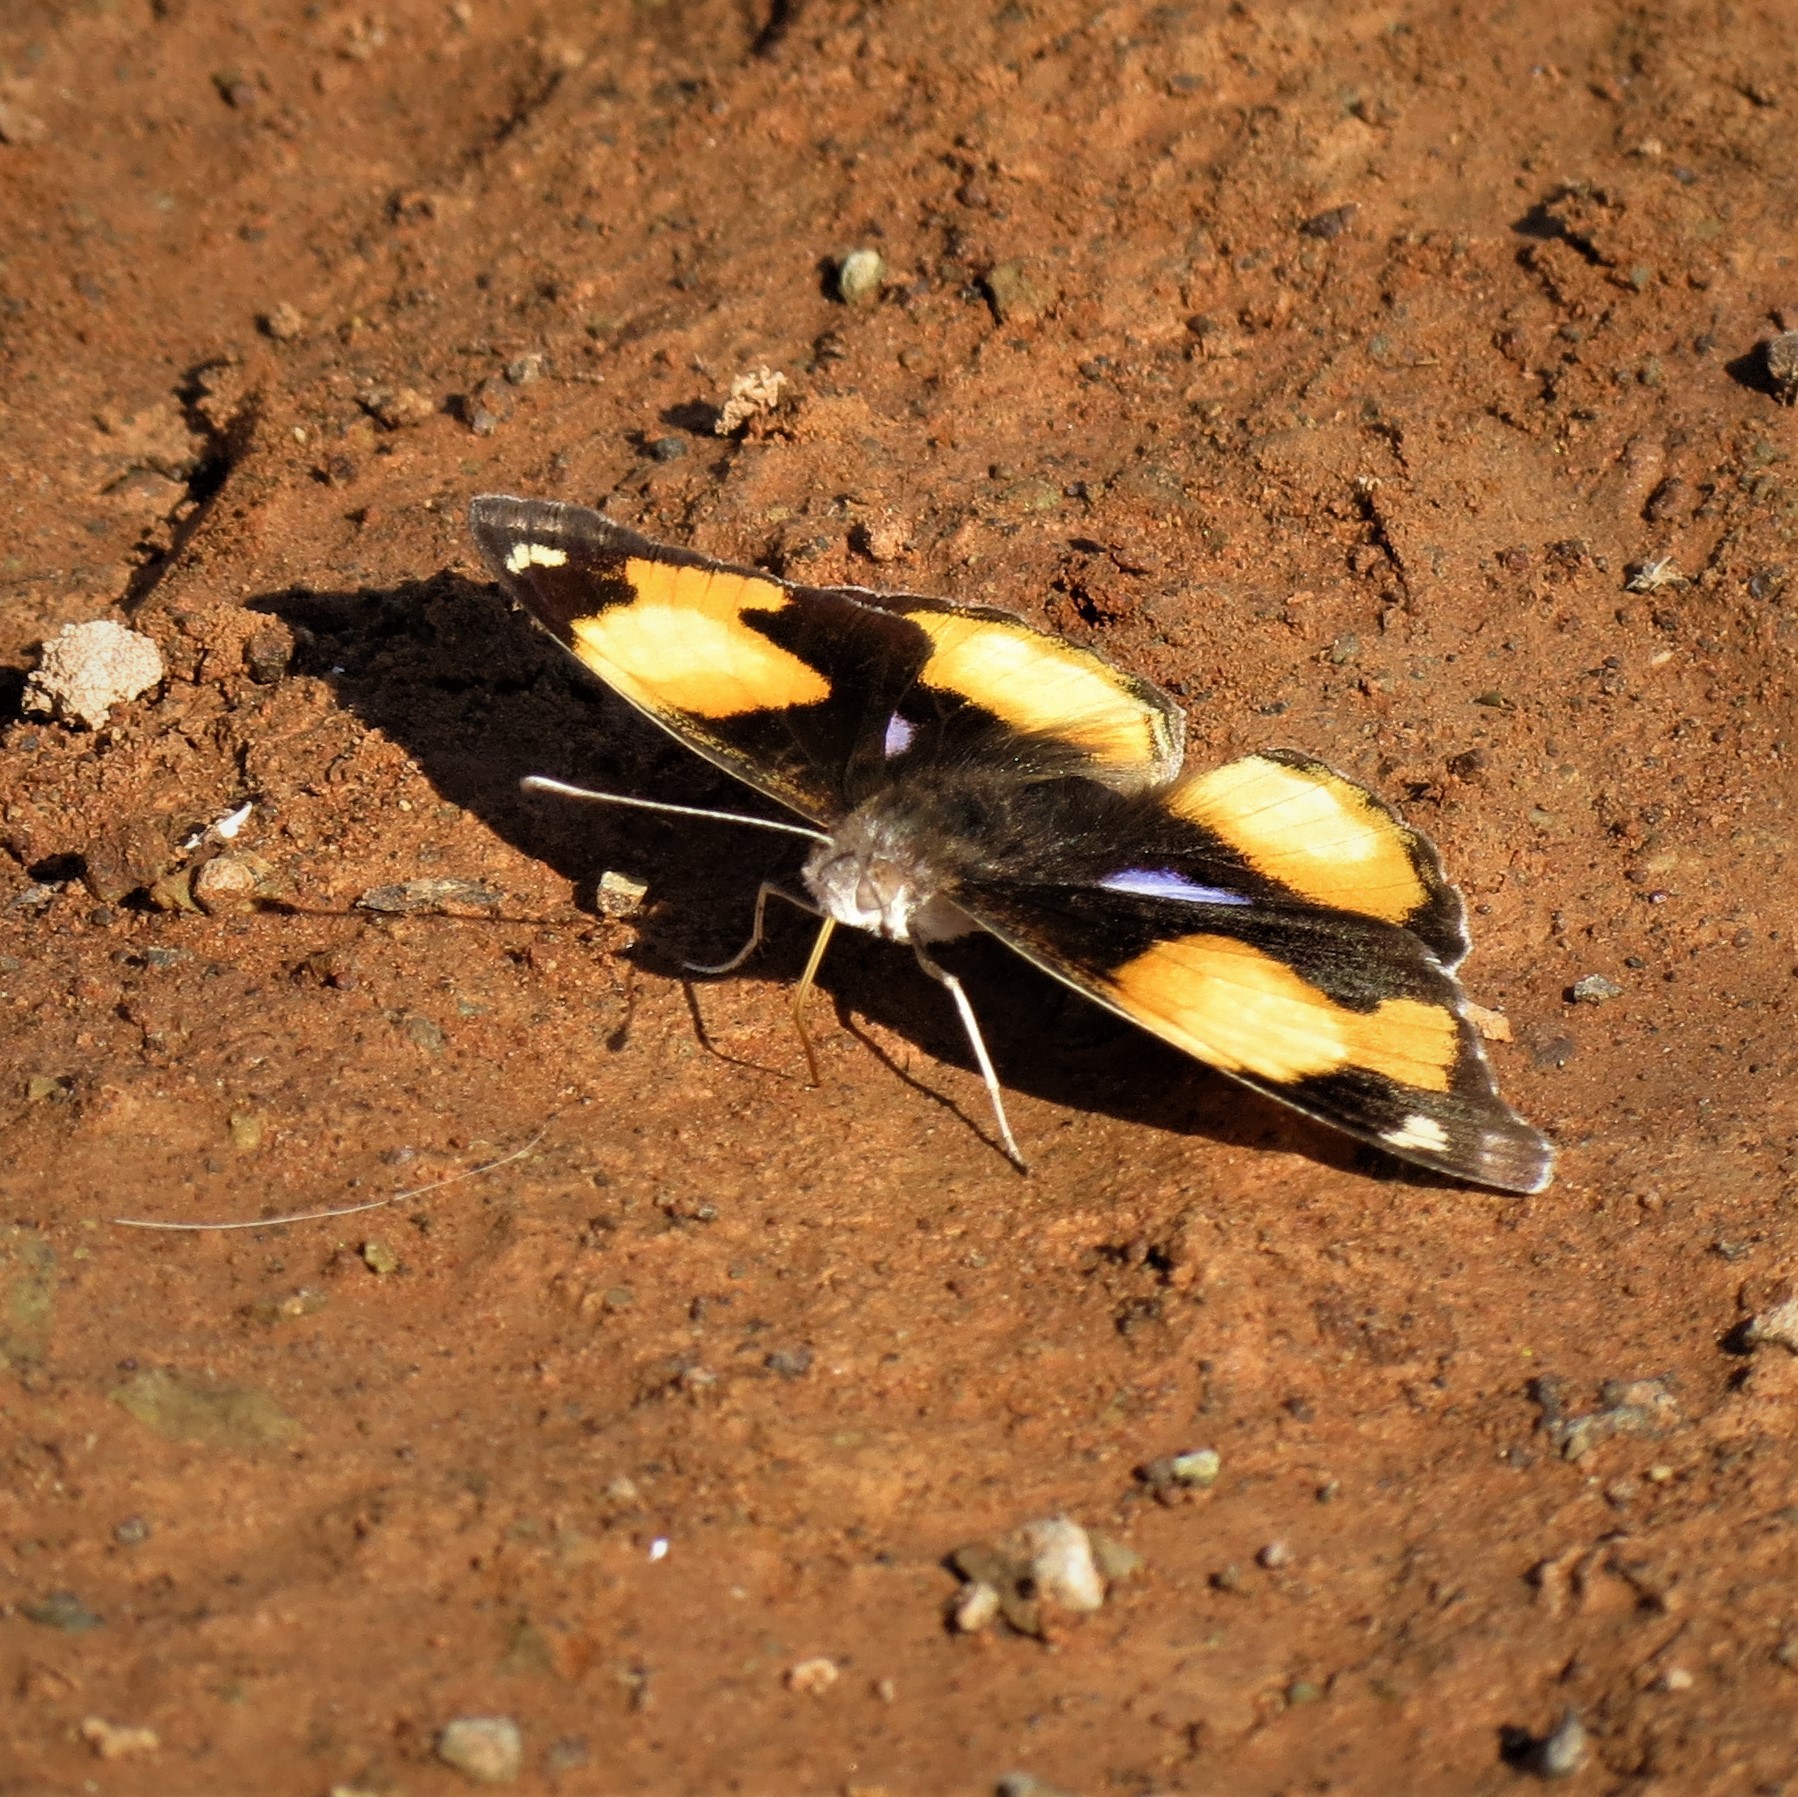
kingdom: Animalia
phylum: Arthropoda
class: Insecta
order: Lepidoptera
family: Nymphalidae
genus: Junonia
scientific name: Junonia hierta
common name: Yellow pansy
